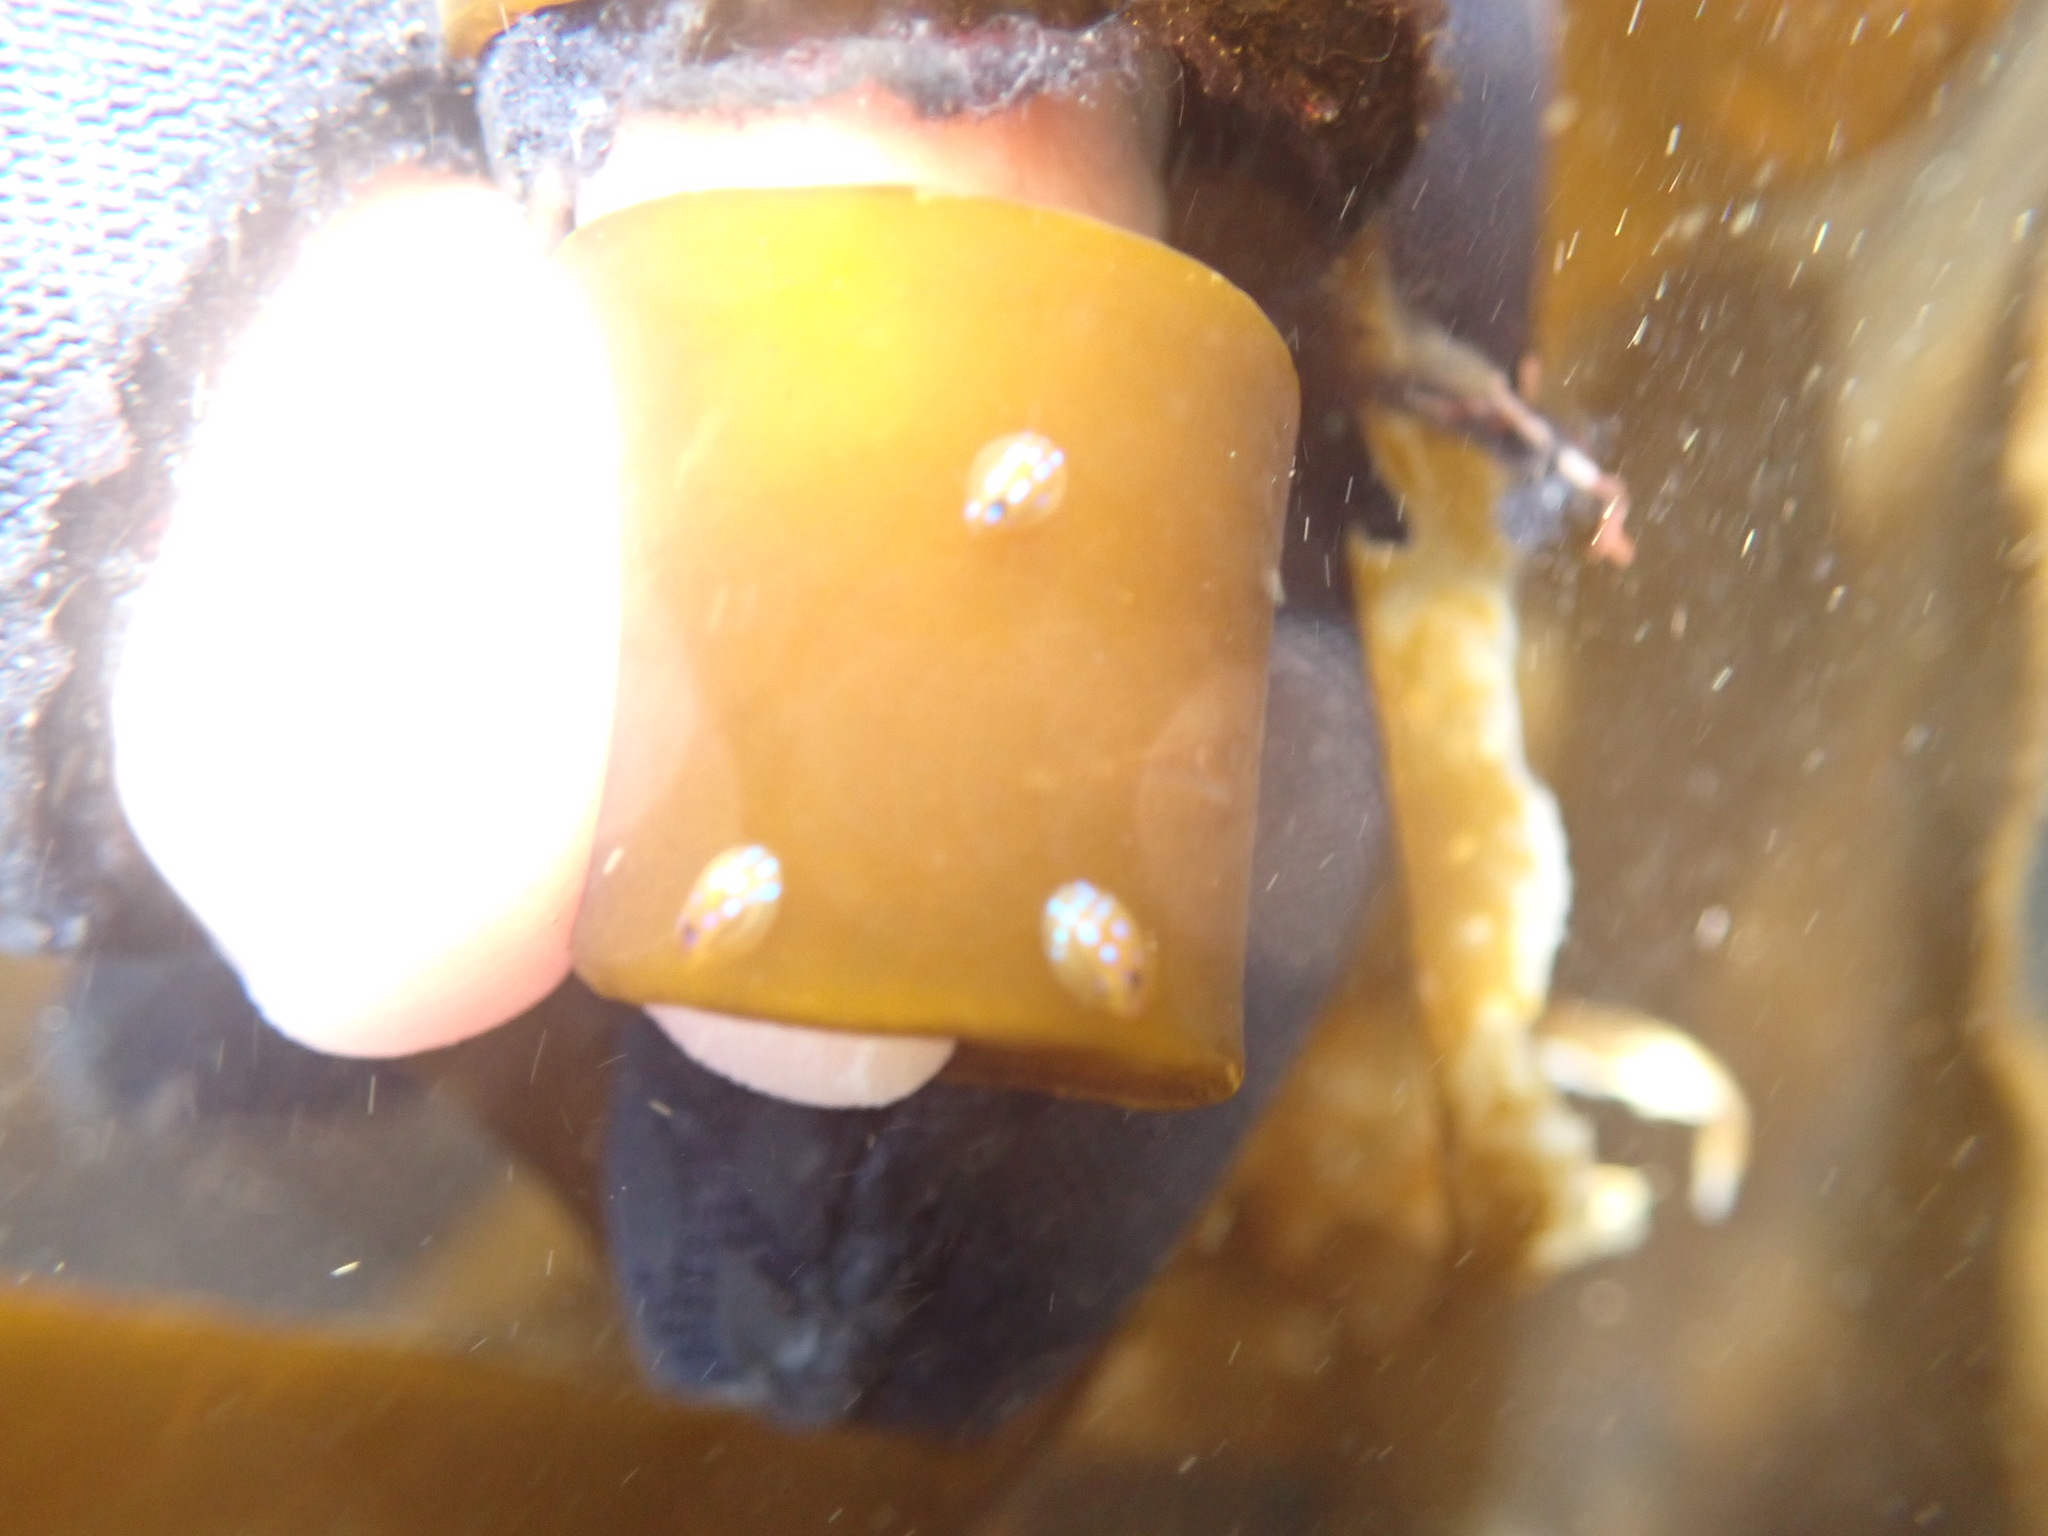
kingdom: Animalia
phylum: Mollusca
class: Gastropoda
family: Patellidae
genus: Patella
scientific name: Patella pellucida
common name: Blue-rayed limpet
